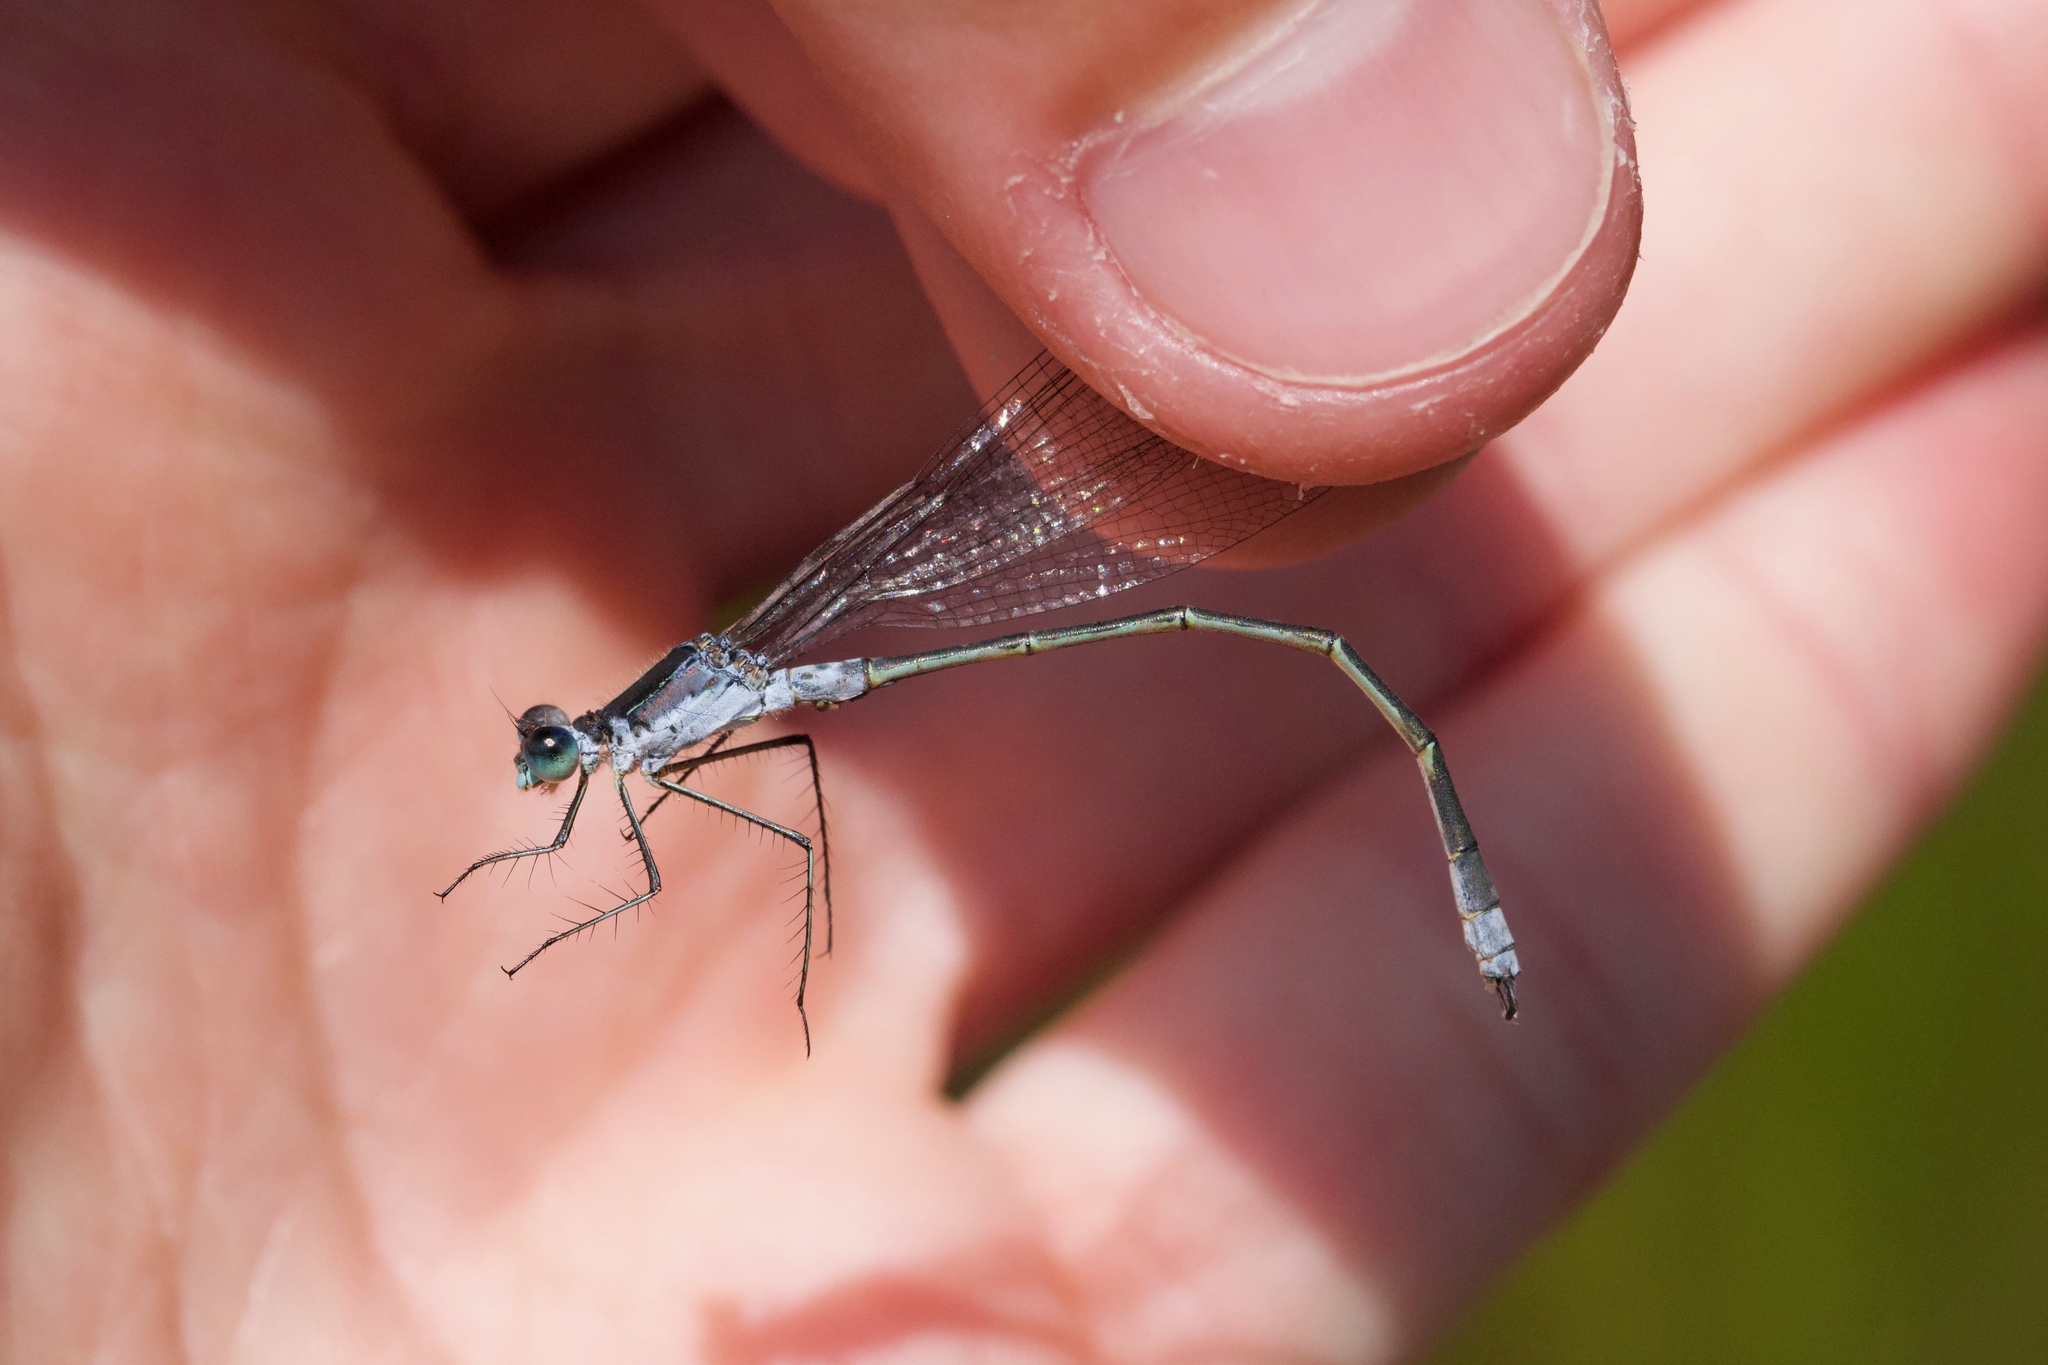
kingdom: Animalia
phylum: Arthropoda
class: Insecta
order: Odonata
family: Lestidae
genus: Lestes
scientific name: Lestes disjunctus
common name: Northern spreadwing
